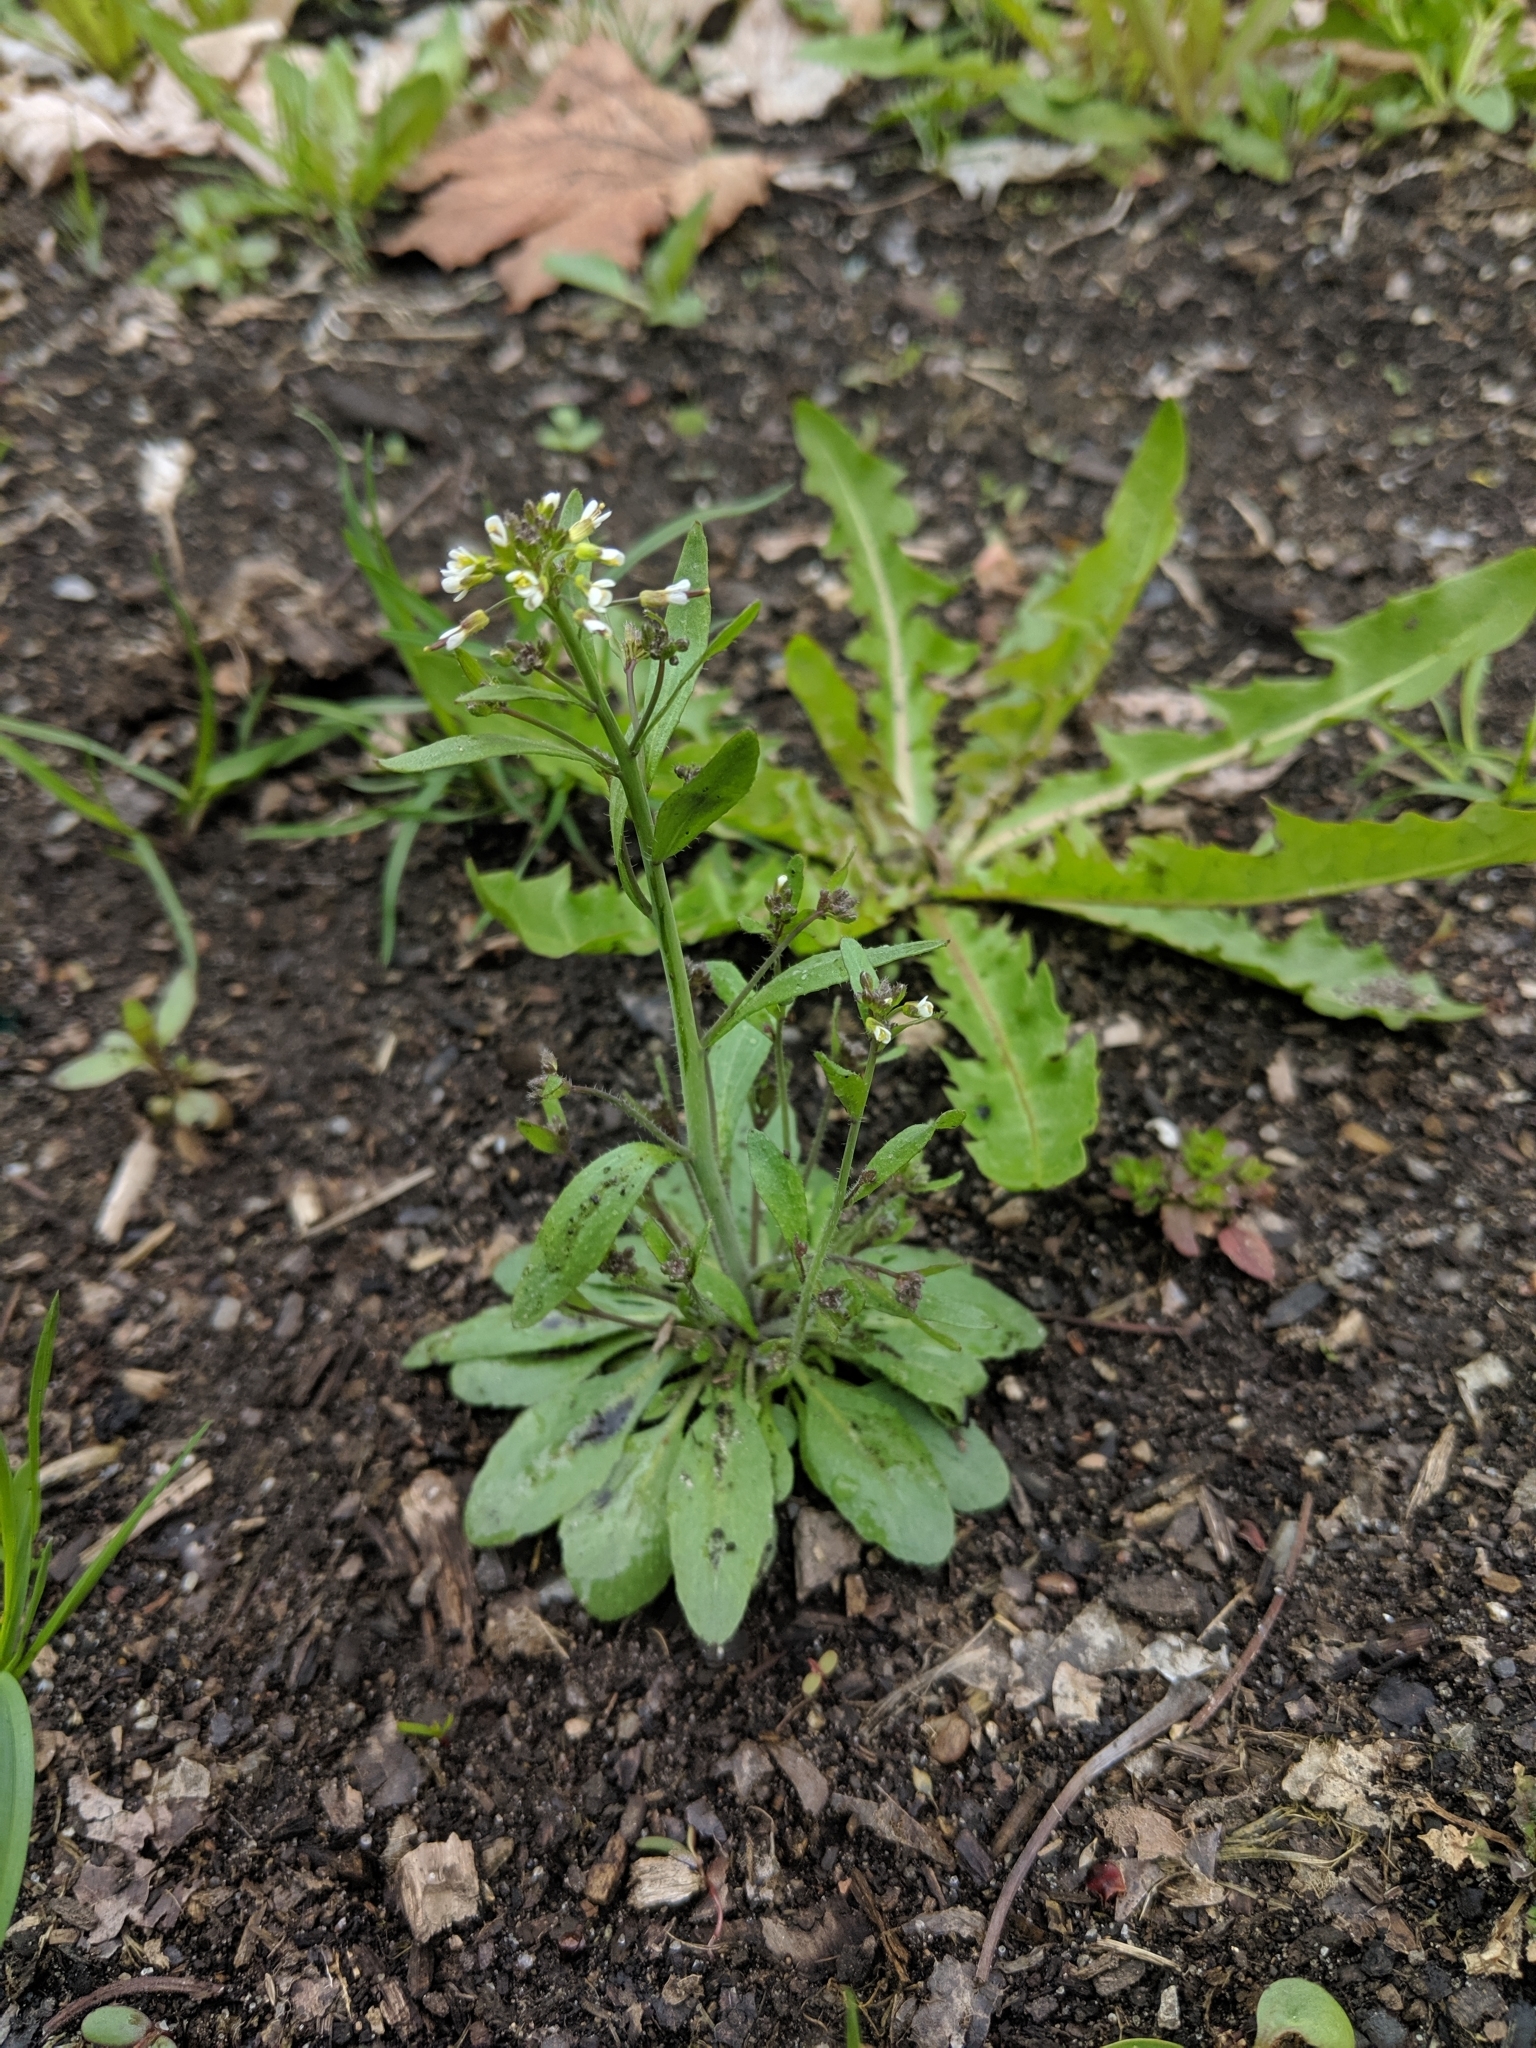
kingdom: Plantae
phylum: Tracheophyta
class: Magnoliopsida
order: Brassicales
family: Brassicaceae
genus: Capsella
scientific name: Capsella bursa-pastoris
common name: Shepherd's purse
